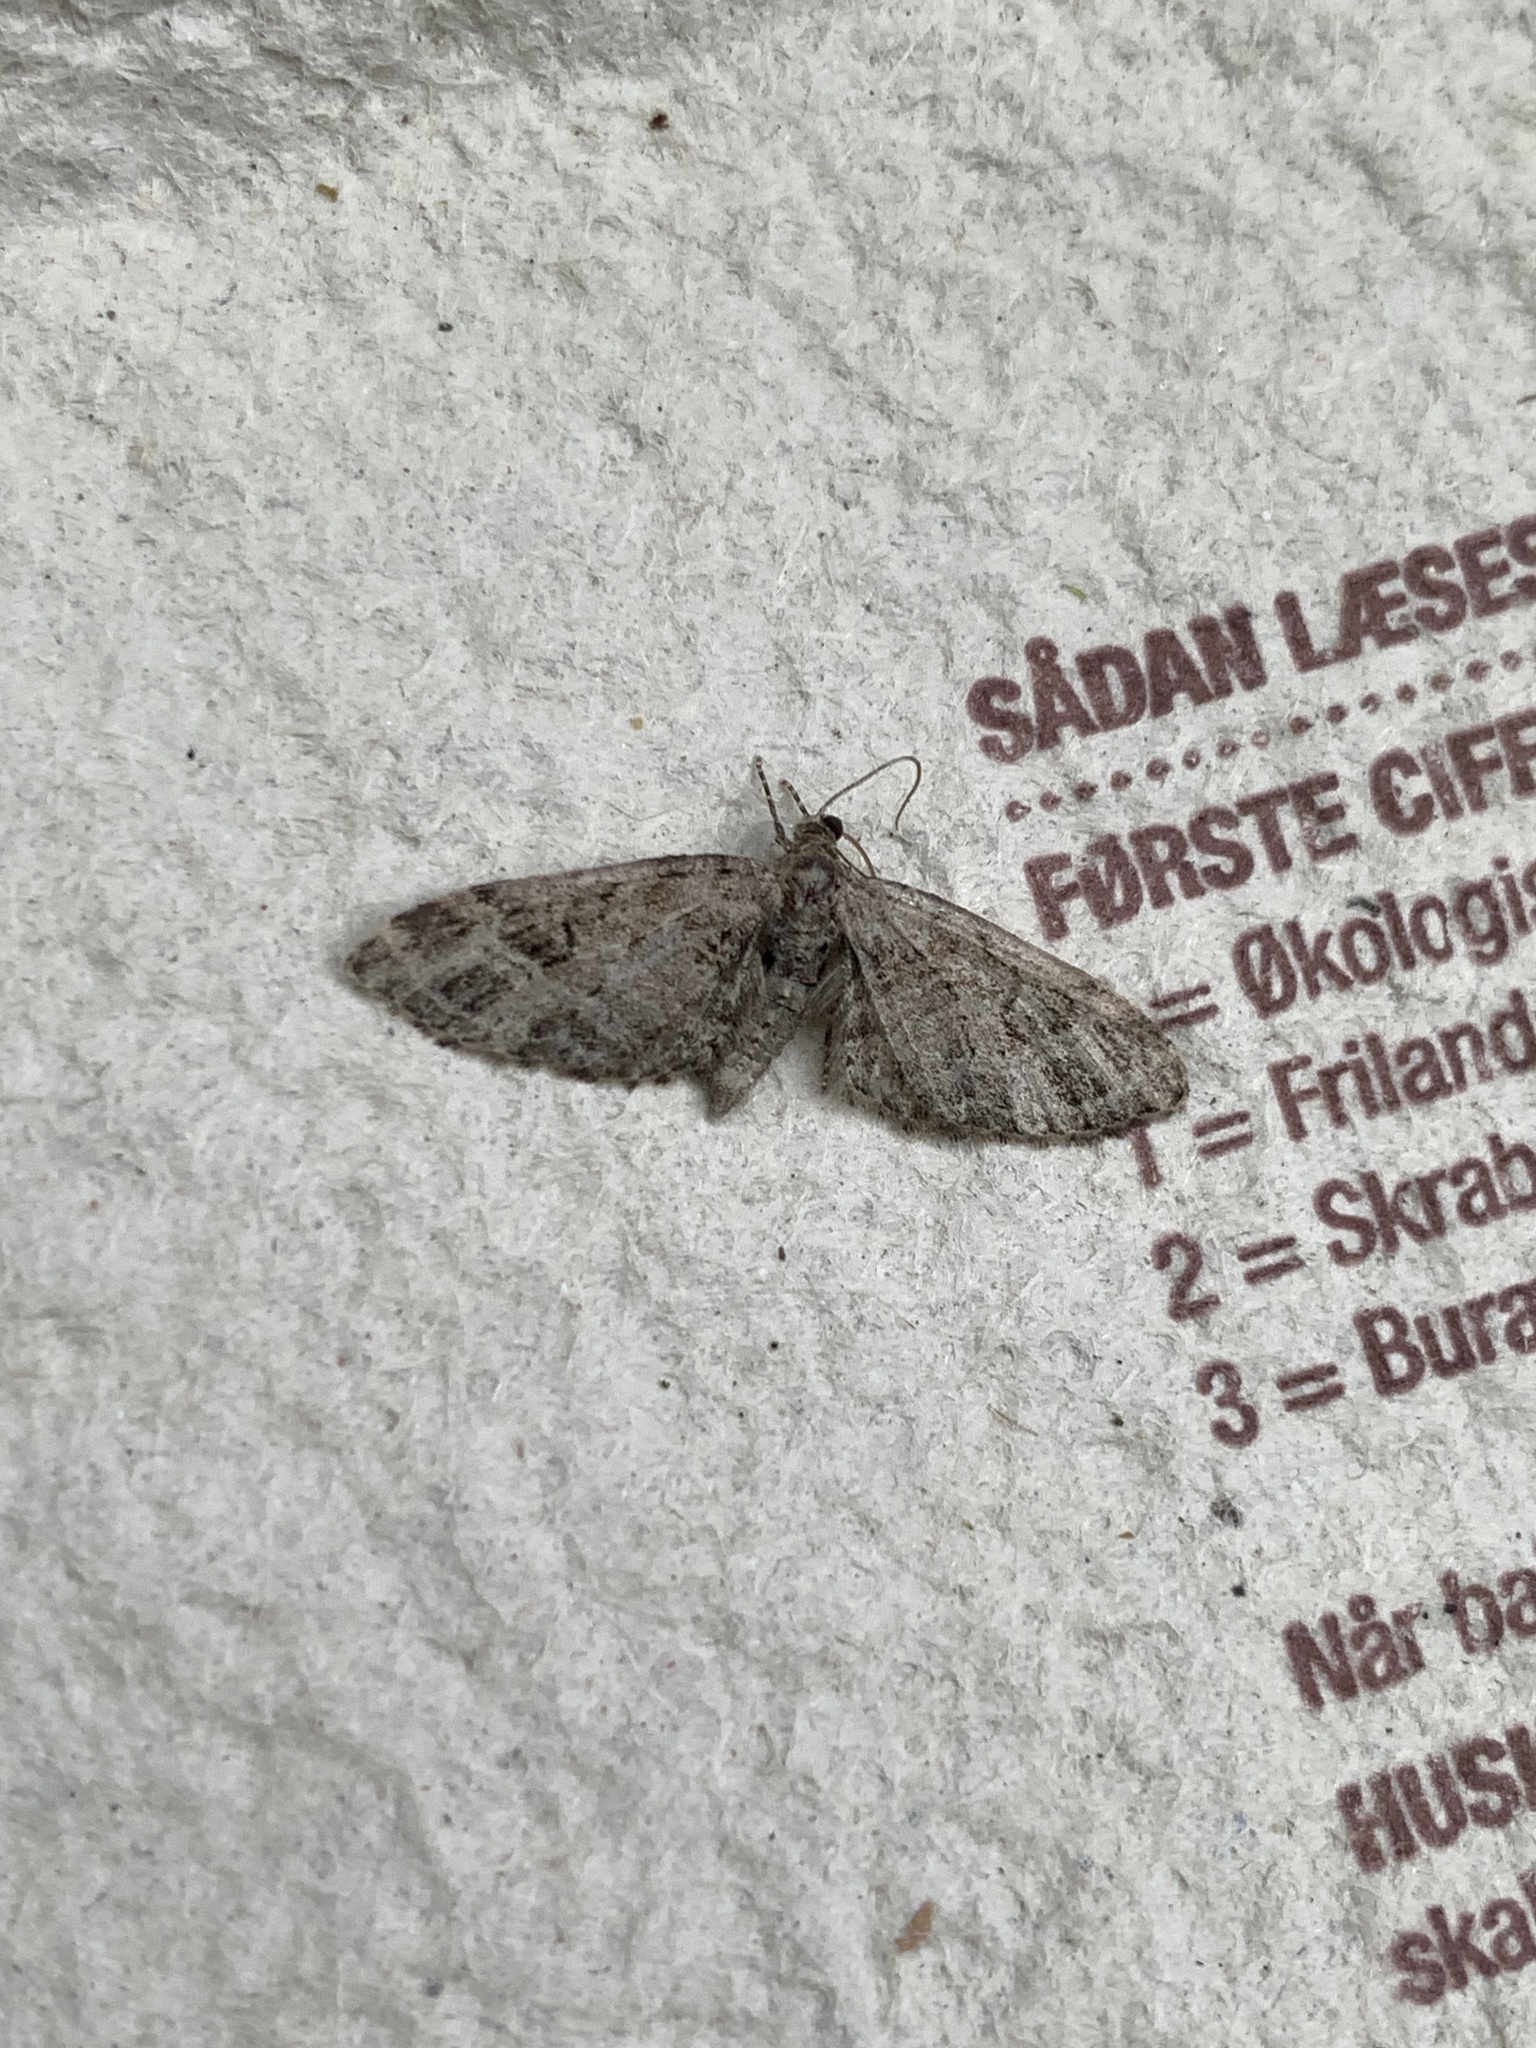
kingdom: Animalia
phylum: Arthropoda
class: Insecta
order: Lepidoptera
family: Geometridae
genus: Eupithecia
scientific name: Eupithecia exiguata
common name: Mottled pug
